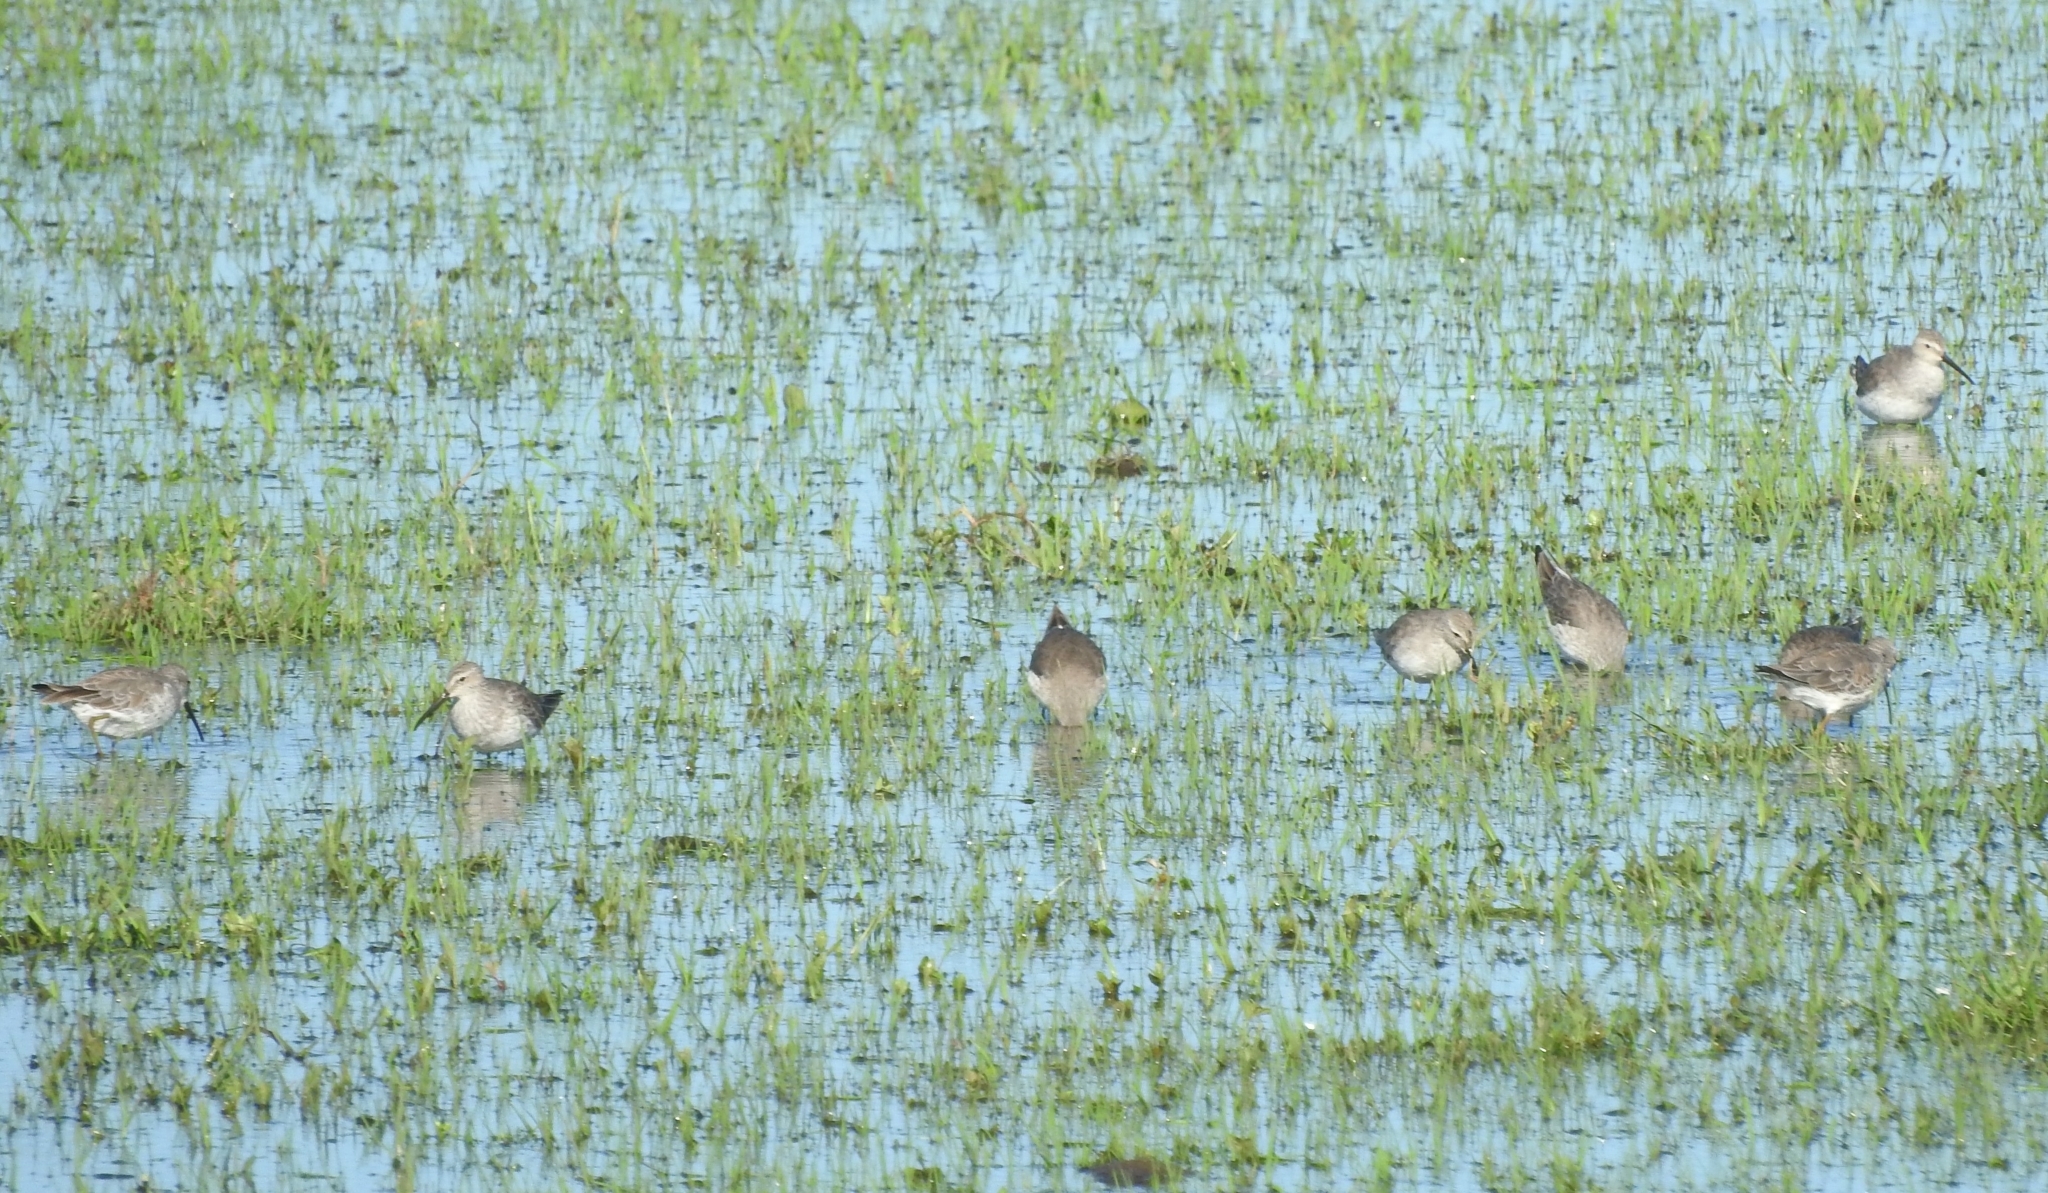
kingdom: Animalia
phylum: Chordata
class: Aves
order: Charadriiformes
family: Scolopacidae
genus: Calidris
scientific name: Calidris himantopus
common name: Stilt sandpiper
